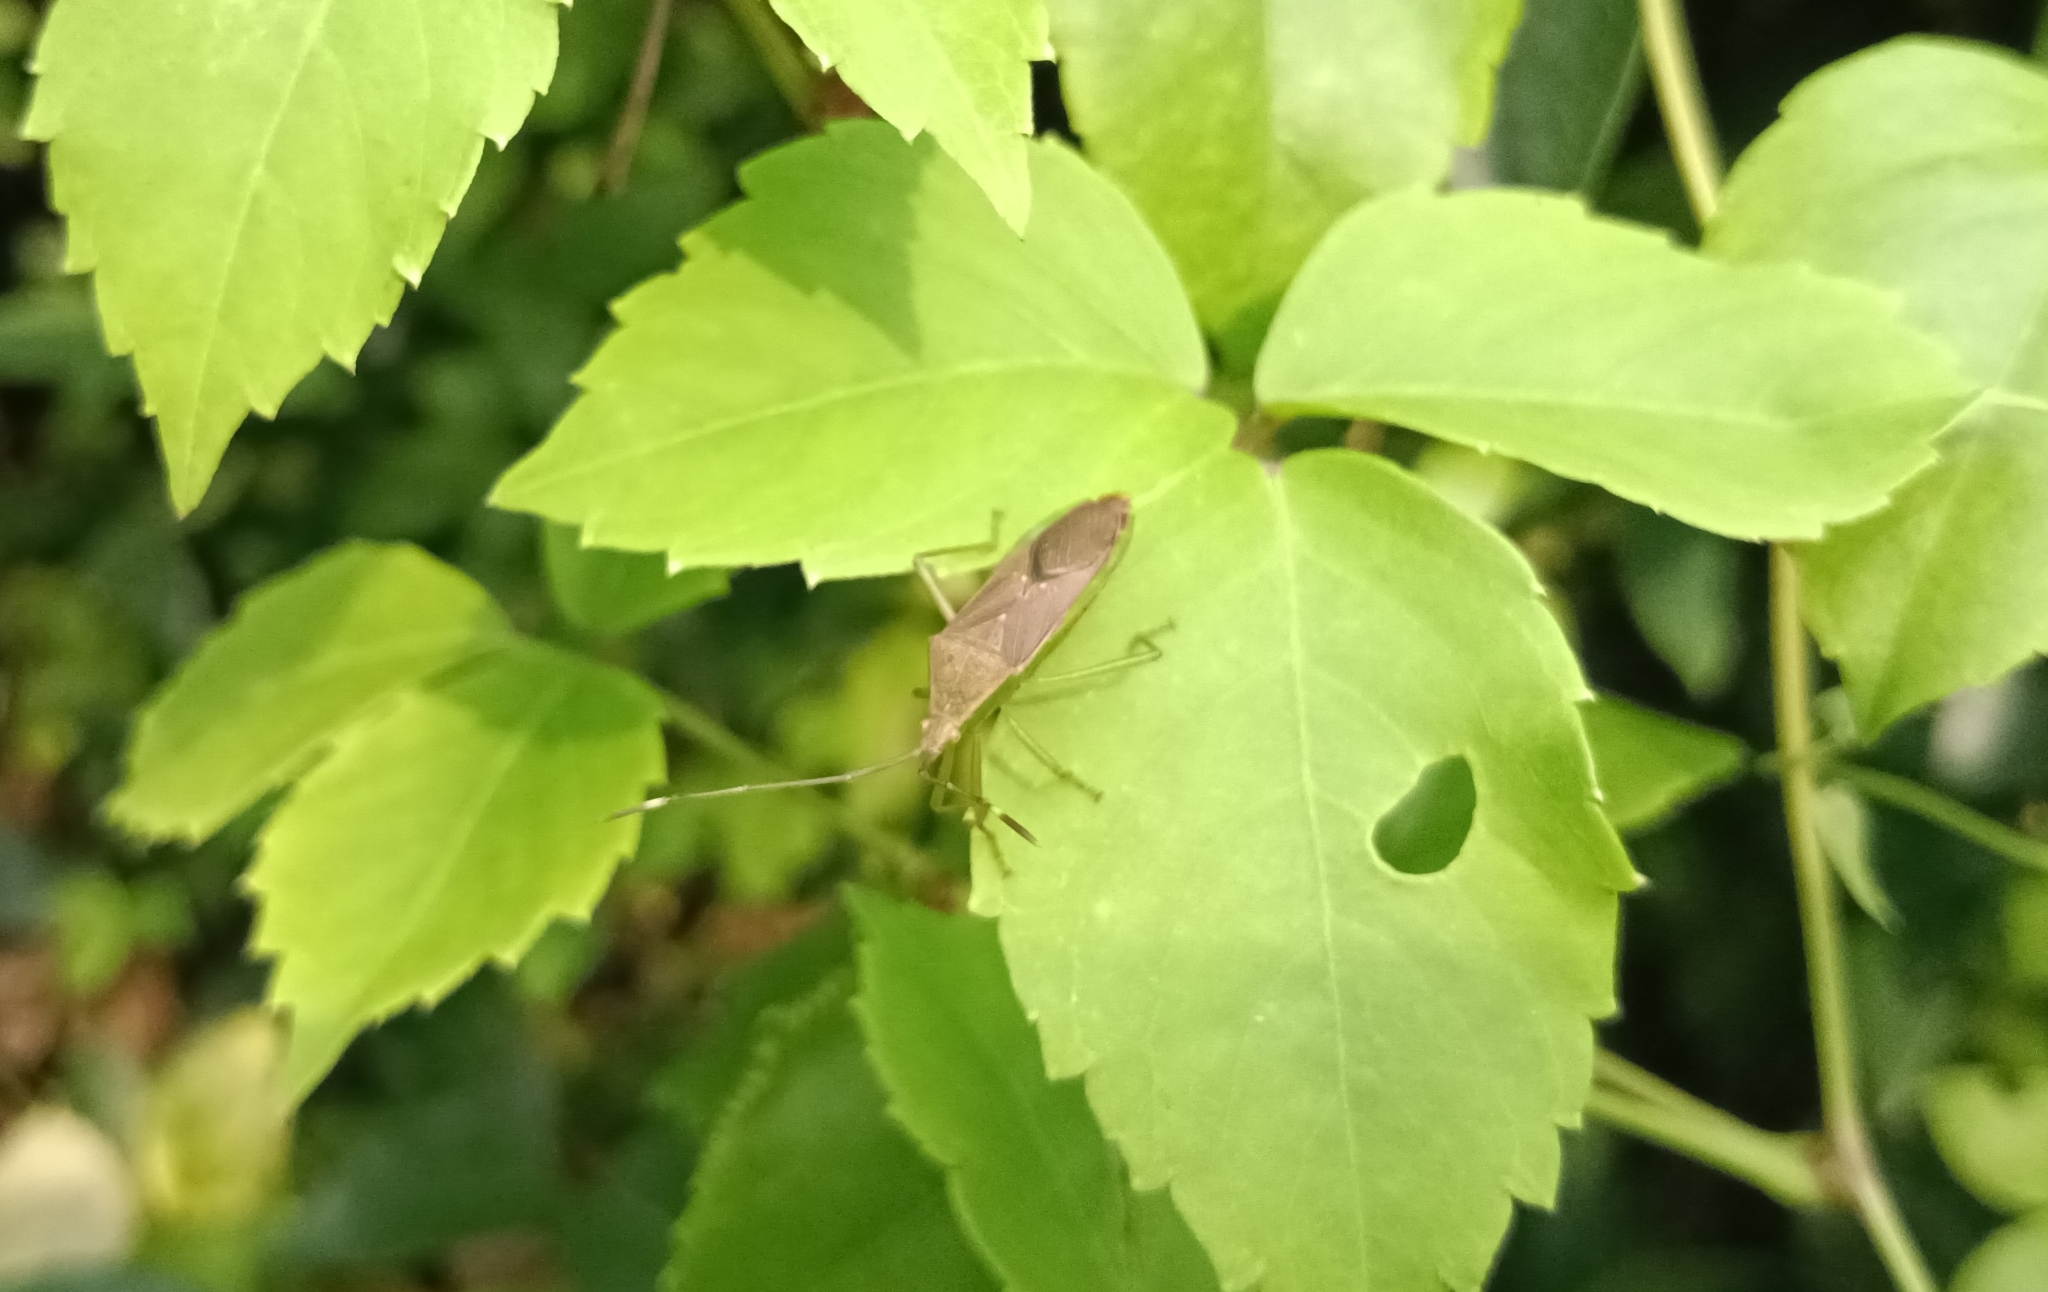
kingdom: Animalia
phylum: Arthropoda
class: Insecta
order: Hemiptera
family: Coreidae
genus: Homoeocerus
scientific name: Homoeocerus relatus
